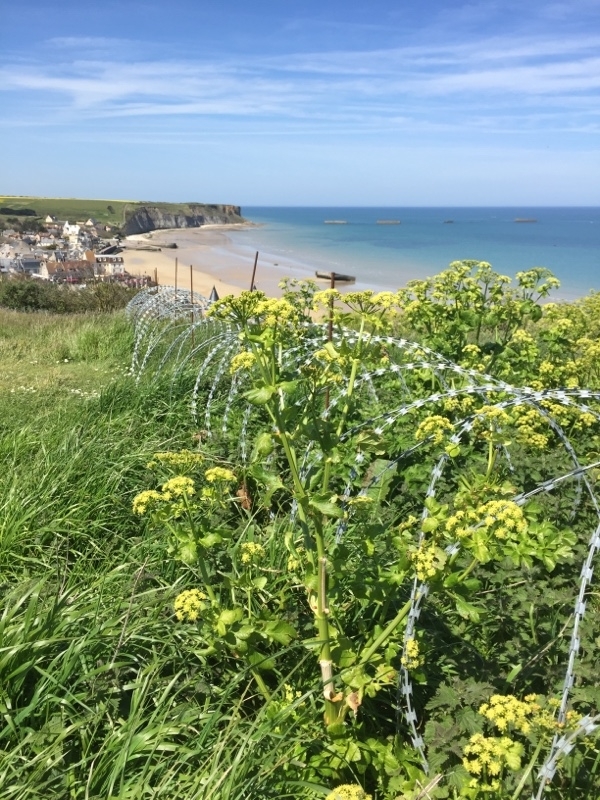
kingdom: Plantae
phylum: Tracheophyta
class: Magnoliopsida
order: Apiales
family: Apiaceae
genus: Smyrnium
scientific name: Smyrnium olusatrum
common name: Alexanders
